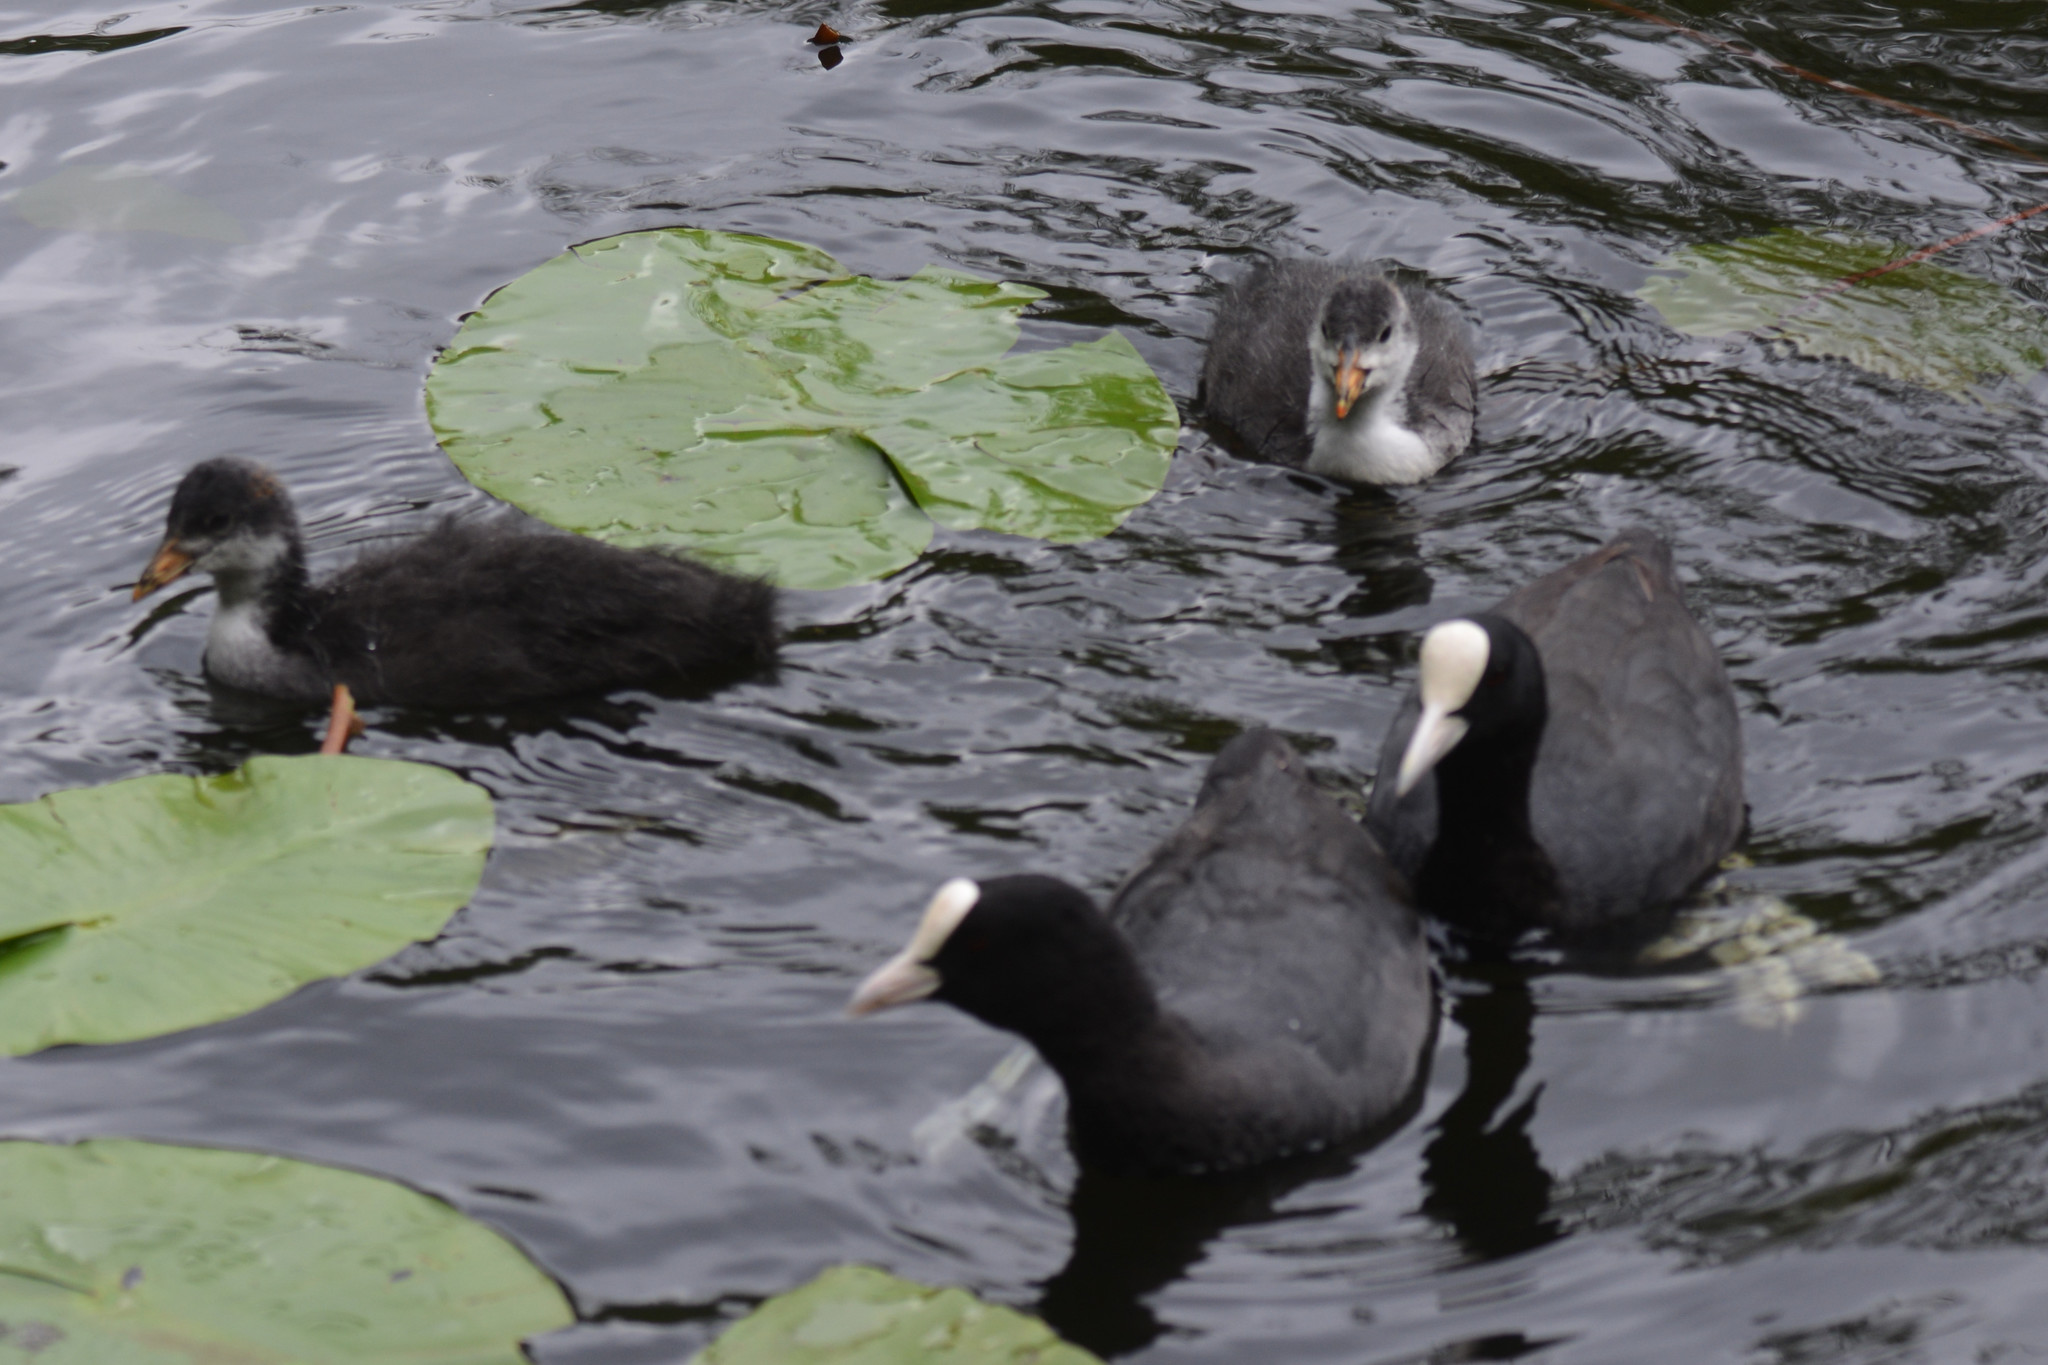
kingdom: Animalia
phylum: Chordata
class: Aves
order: Gruiformes
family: Rallidae
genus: Fulica
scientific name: Fulica atra
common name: Eurasian coot
